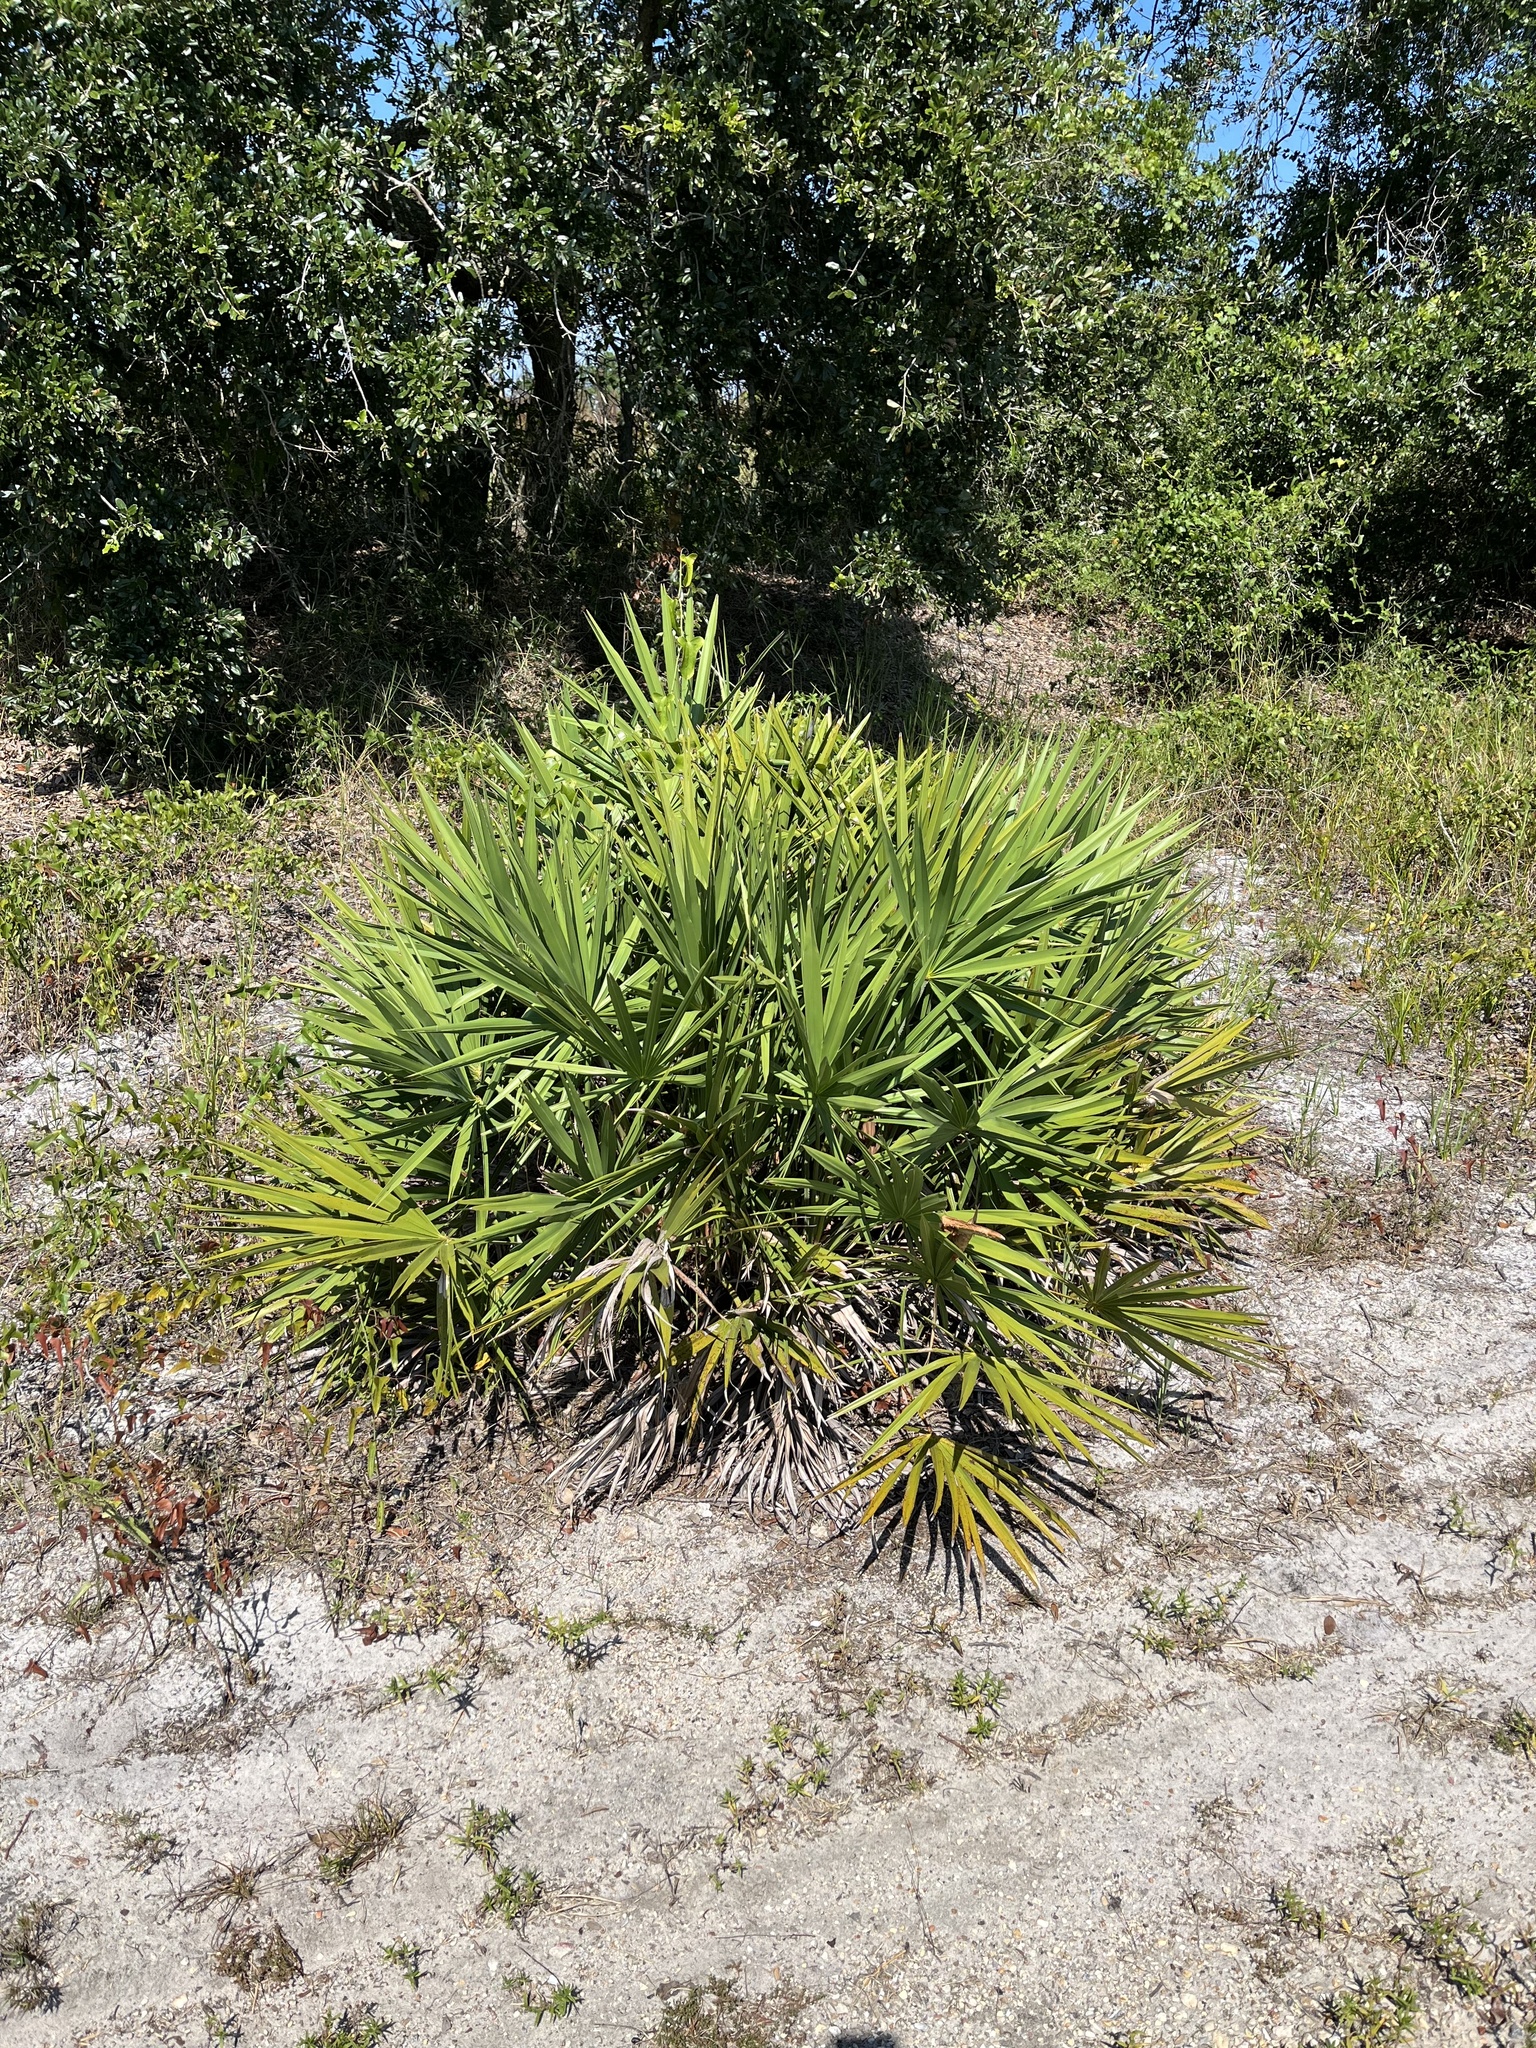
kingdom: Plantae
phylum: Tracheophyta
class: Liliopsida
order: Arecales
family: Arecaceae
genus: Serenoa
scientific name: Serenoa repens
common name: Saw-palmetto
